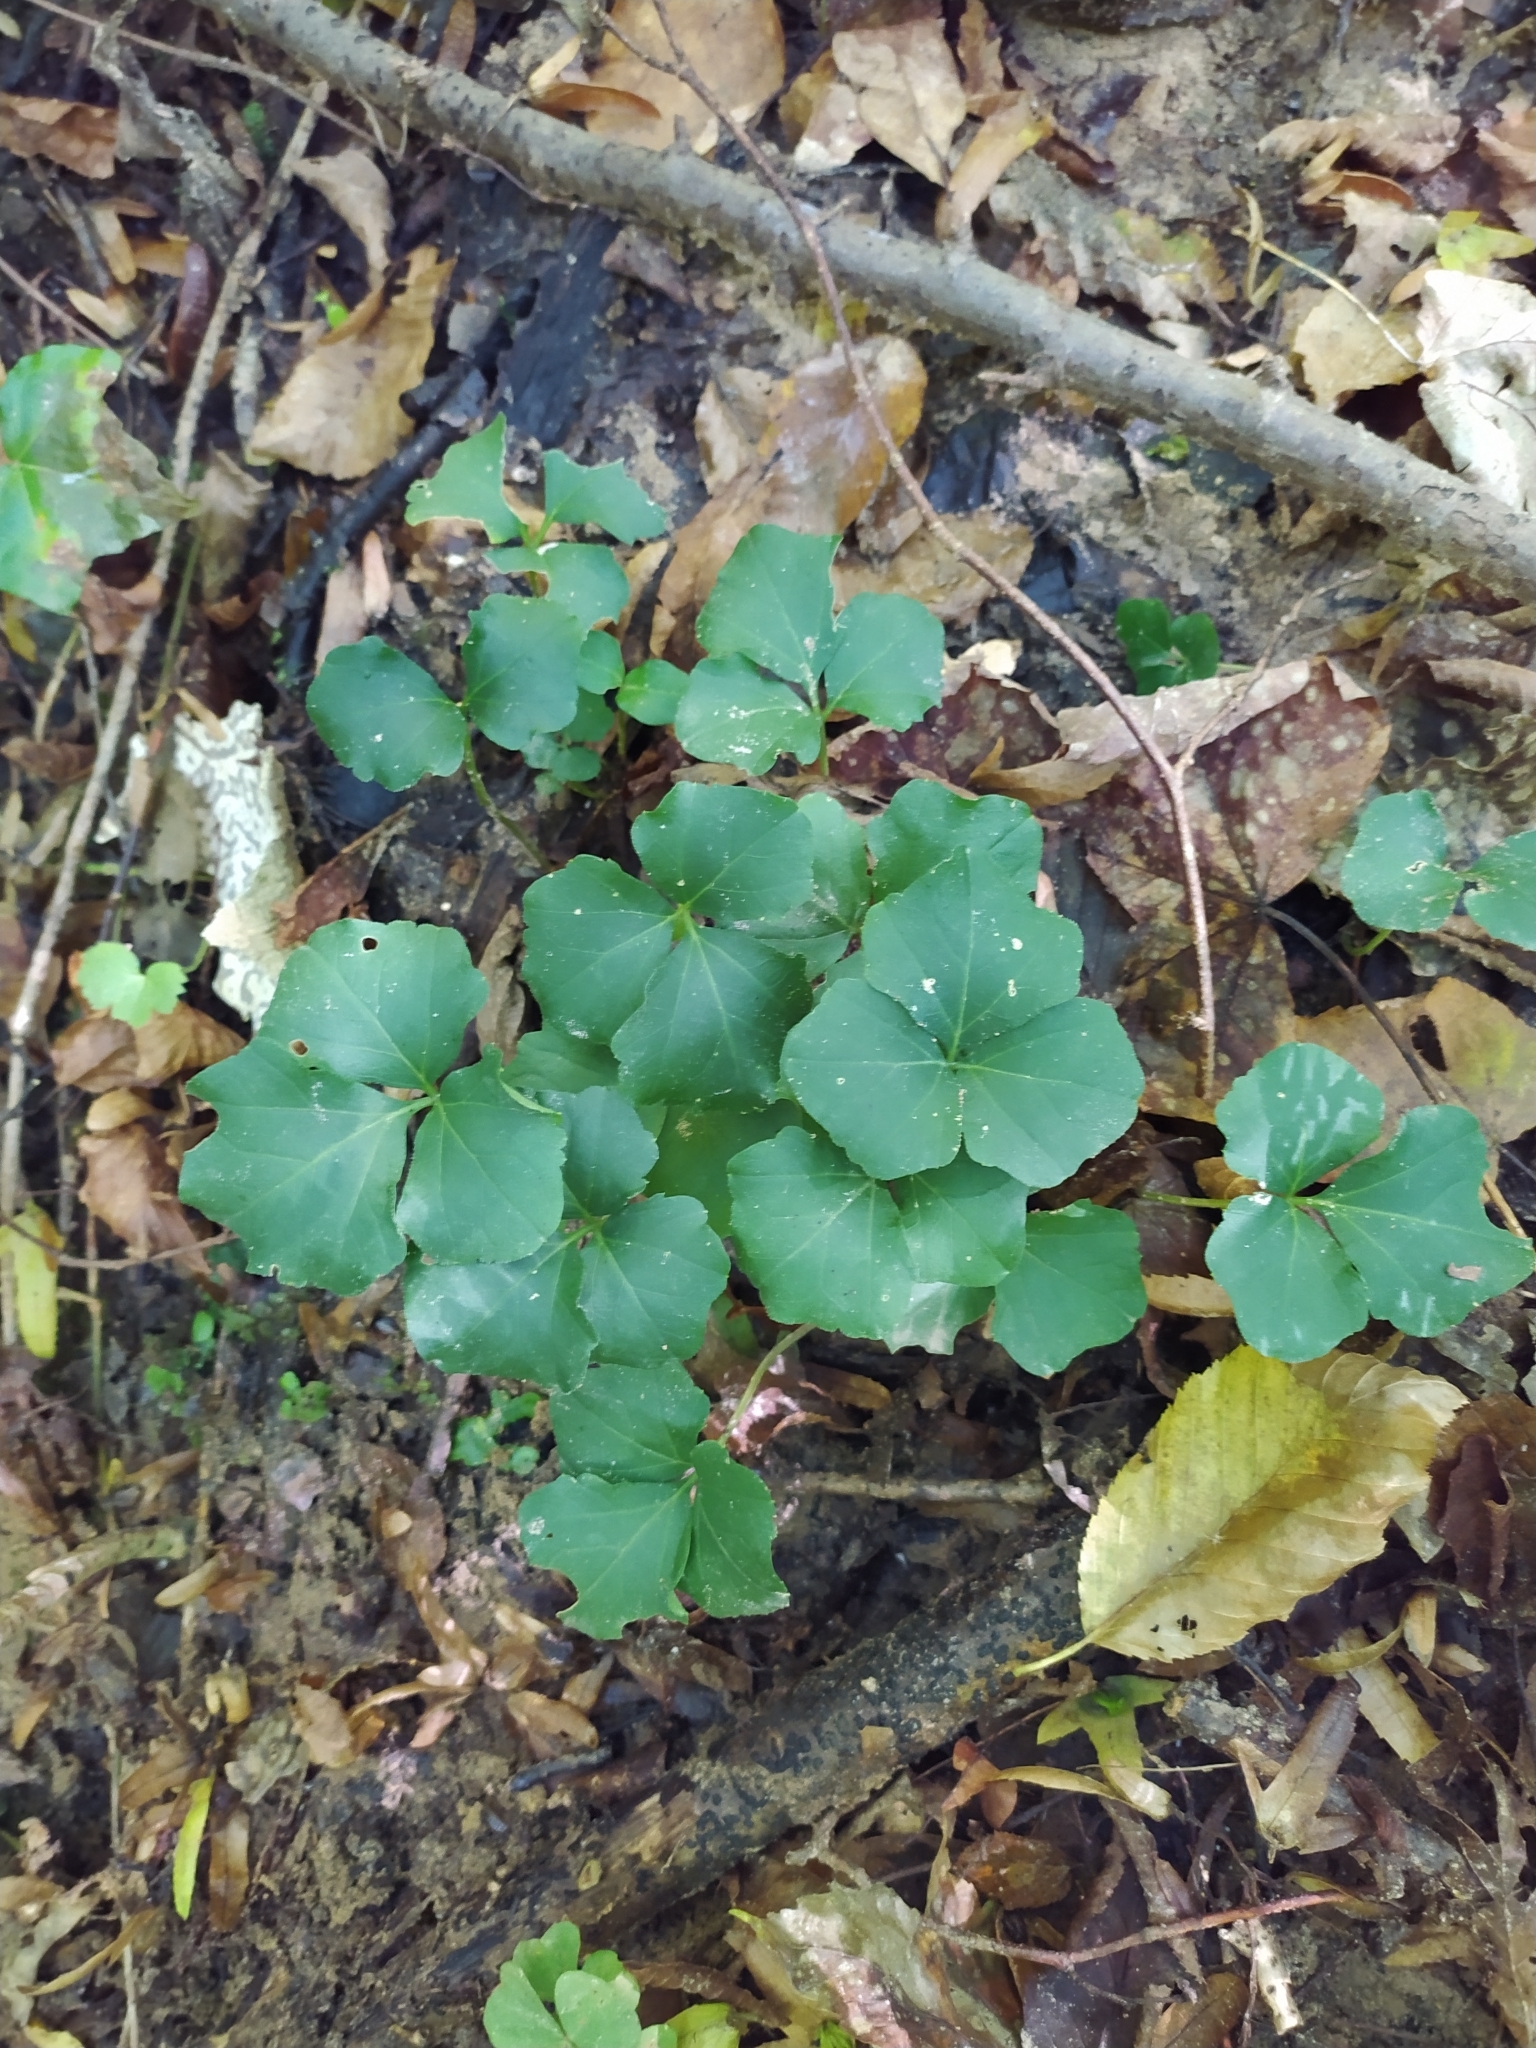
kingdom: Plantae
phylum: Tracheophyta
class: Magnoliopsida
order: Brassicales
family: Brassicaceae
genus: Cardamine
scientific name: Cardamine trifolia
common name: Trefoil cress
